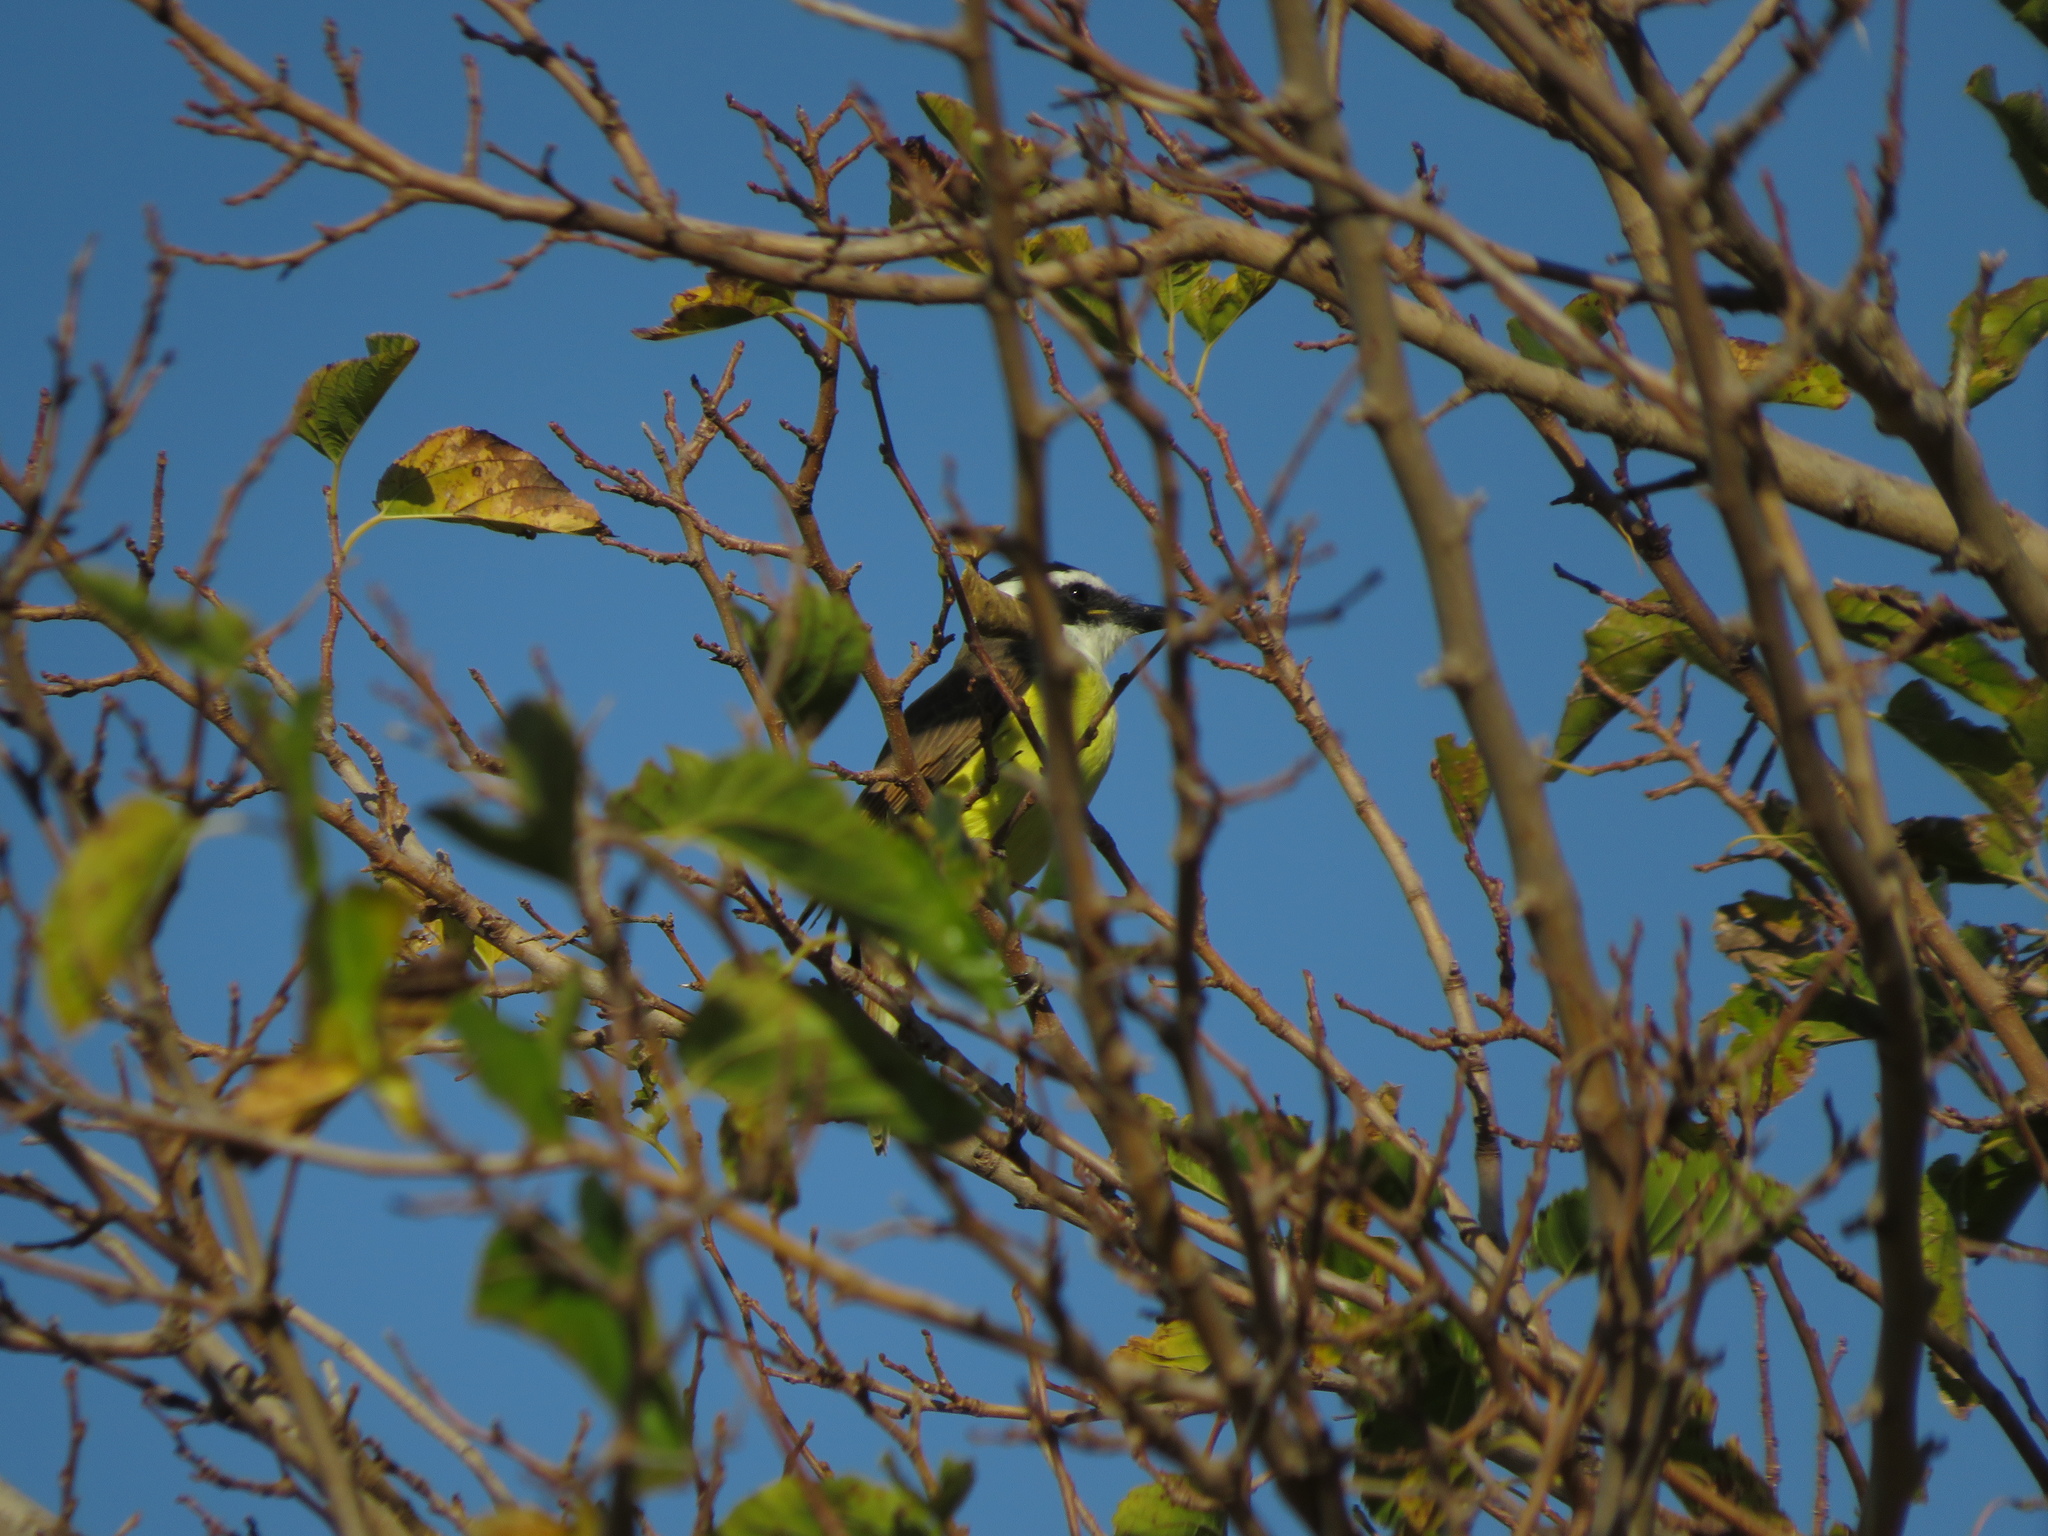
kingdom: Animalia
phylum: Chordata
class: Aves
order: Passeriformes
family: Tyrannidae
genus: Pitangus
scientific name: Pitangus sulphuratus
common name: Great kiskadee
